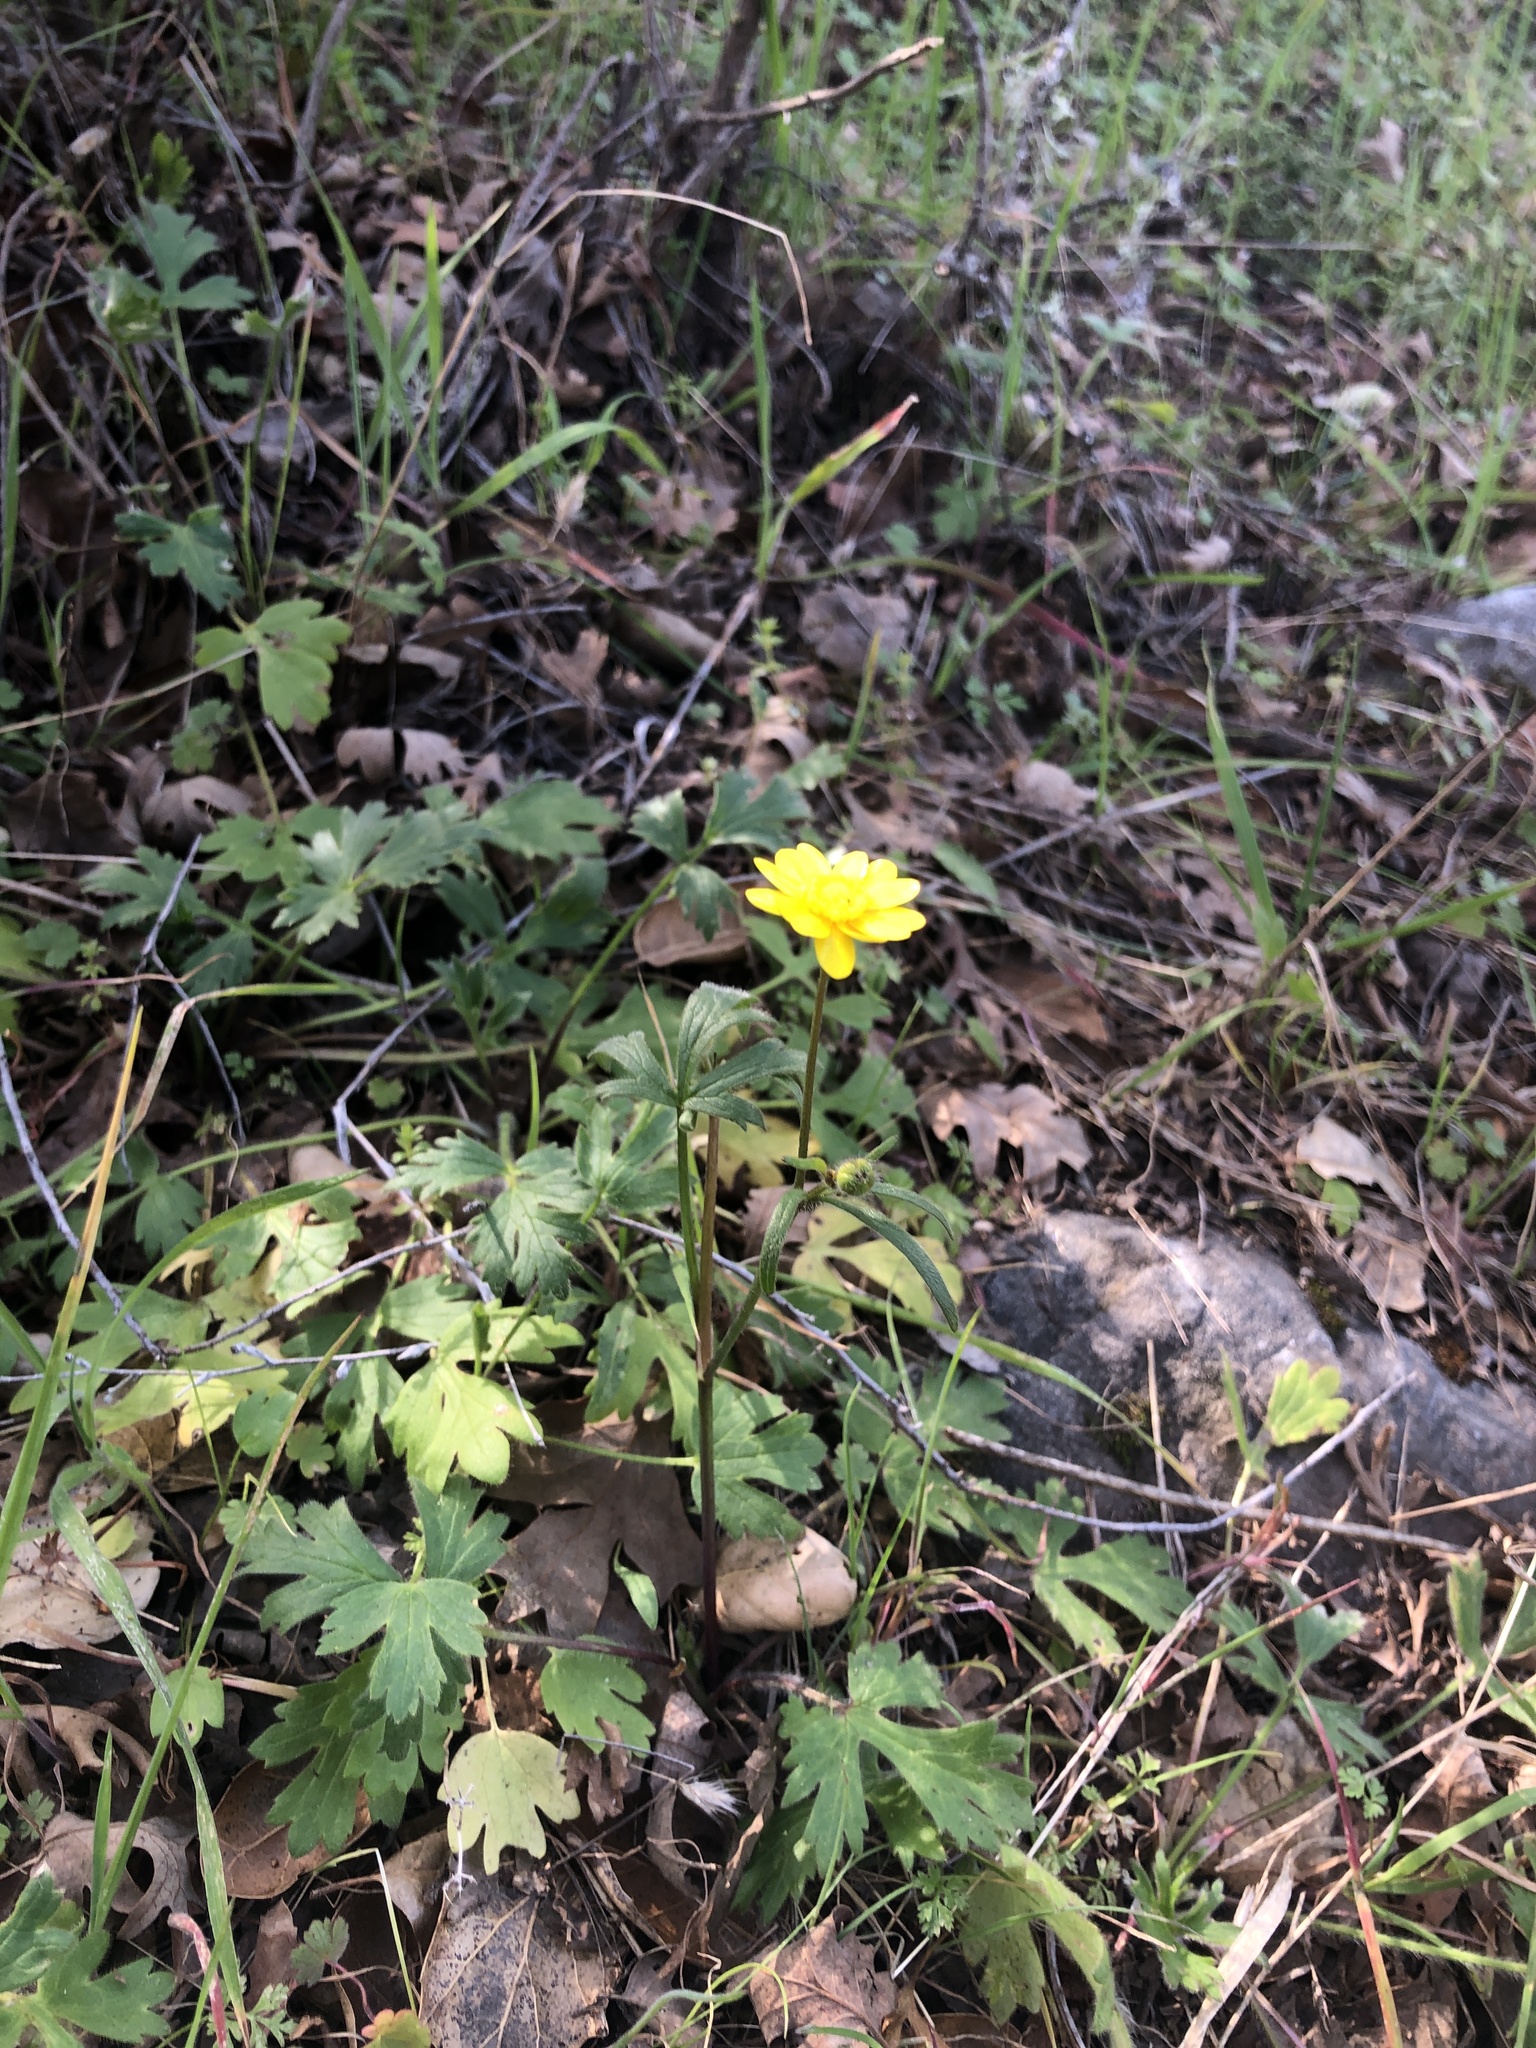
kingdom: Plantae
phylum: Tracheophyta
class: Magnoliopsida
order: Ranunculales
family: Ranunculaceae
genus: Ranunculus
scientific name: Ranunculus californicus
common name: California buttercup
